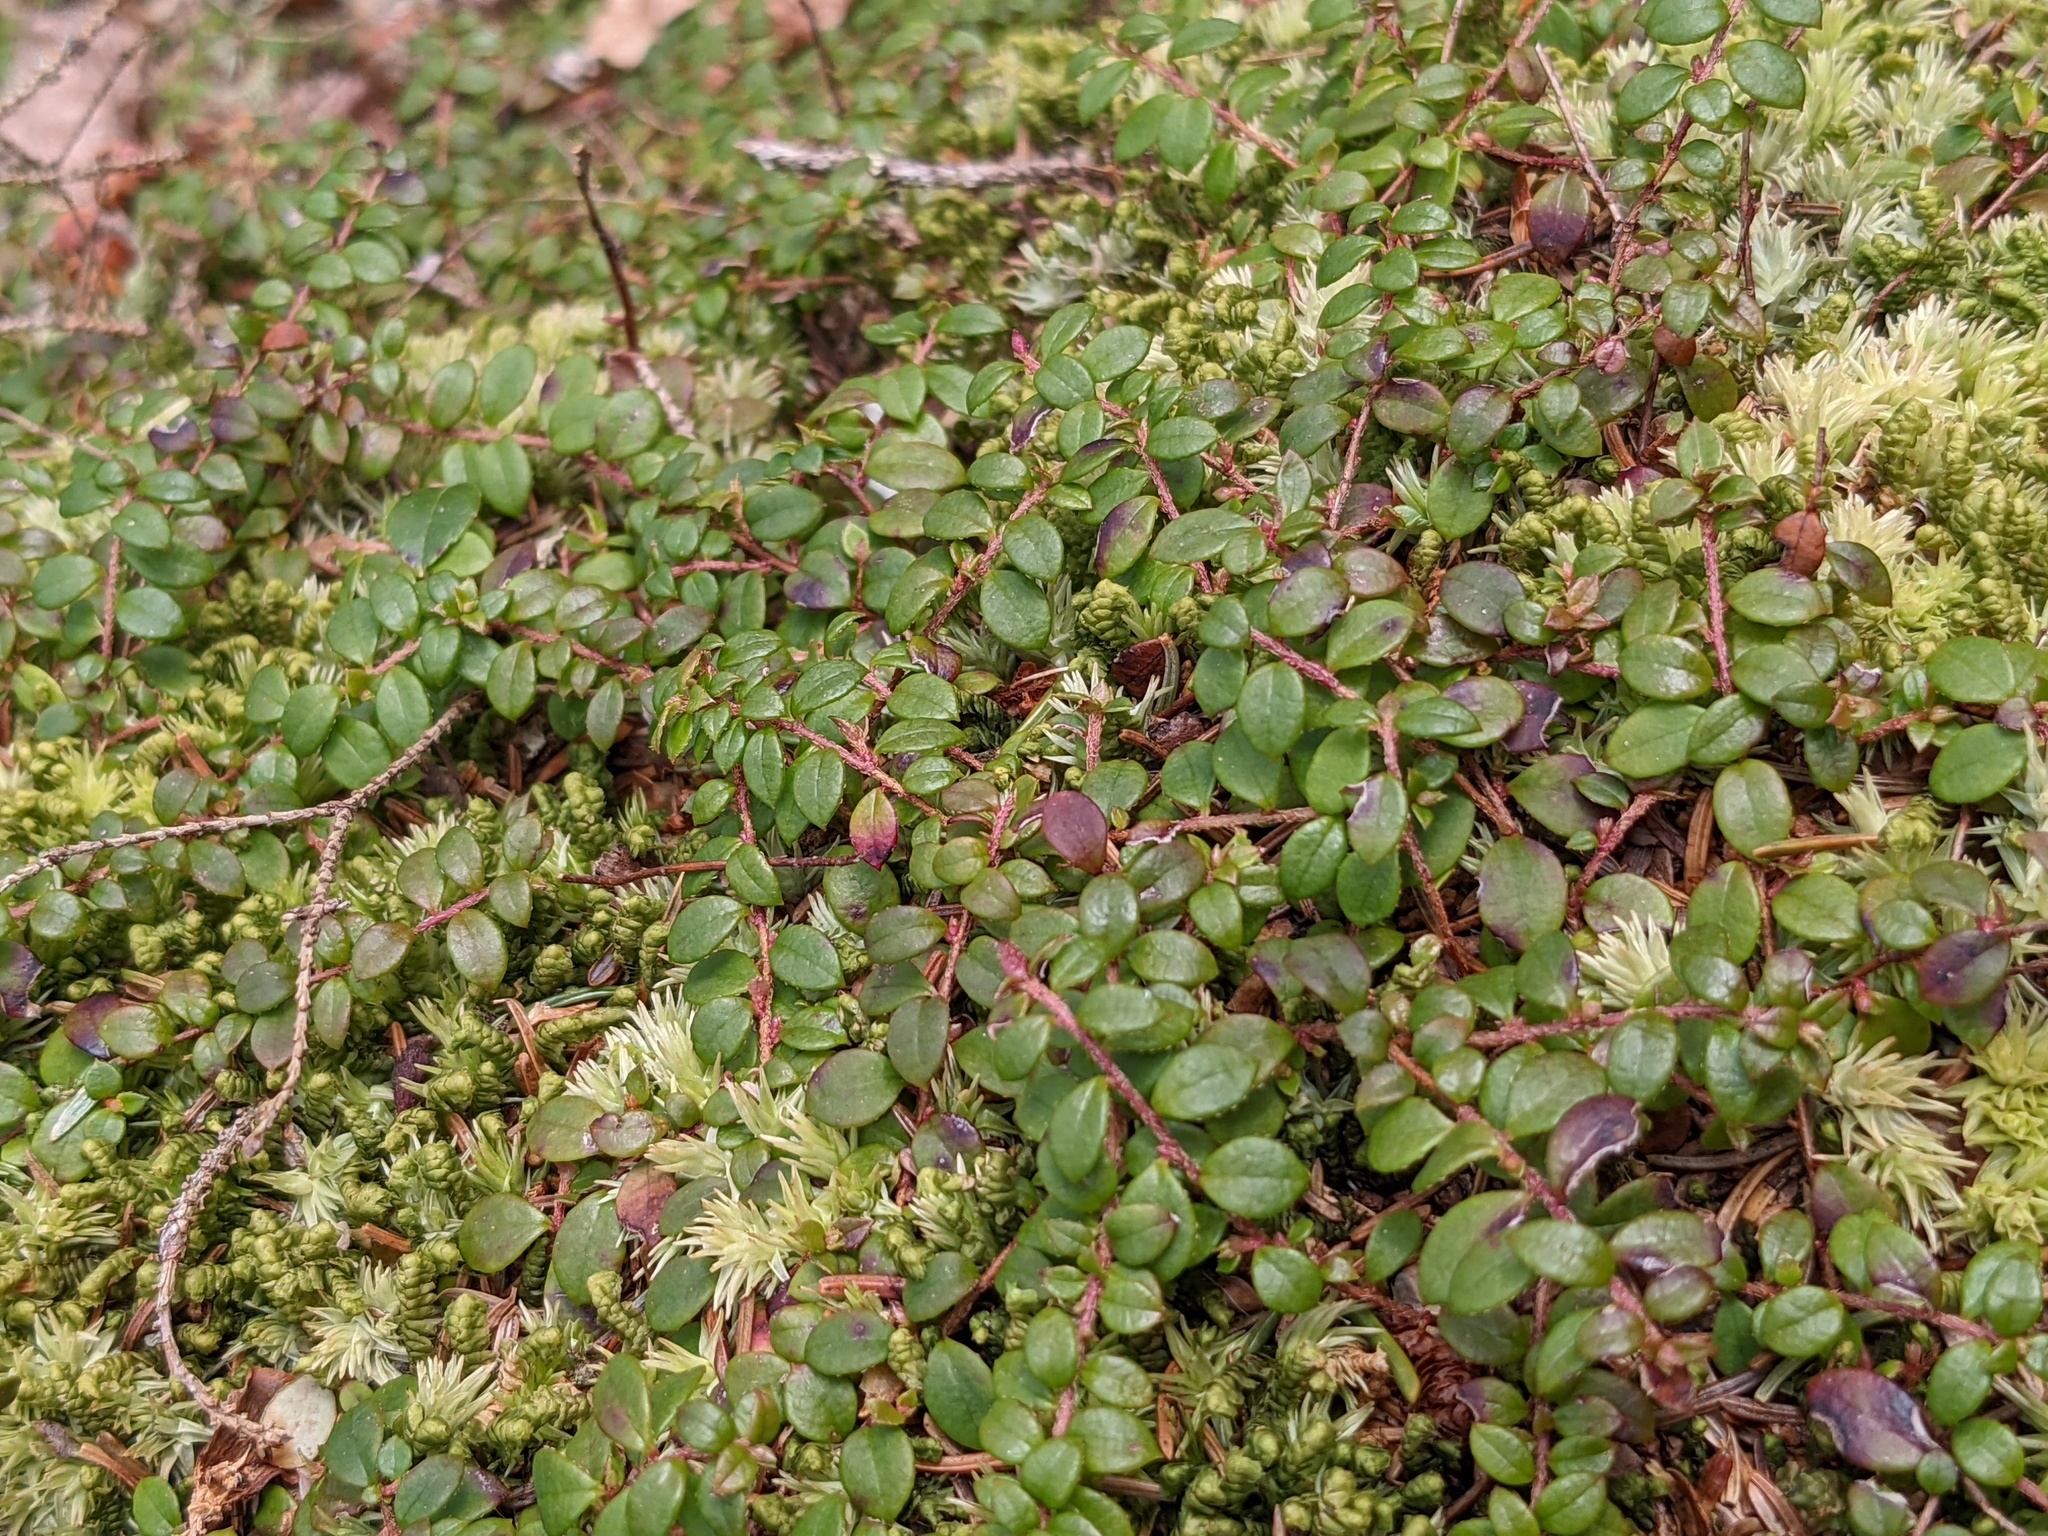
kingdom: Plantae
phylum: Tracheophyta
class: Magnoliopsida
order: Ericales
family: Ericaceae
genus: Gaultheria
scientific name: Gaultheria hispidula
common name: Cancer wintergreen
